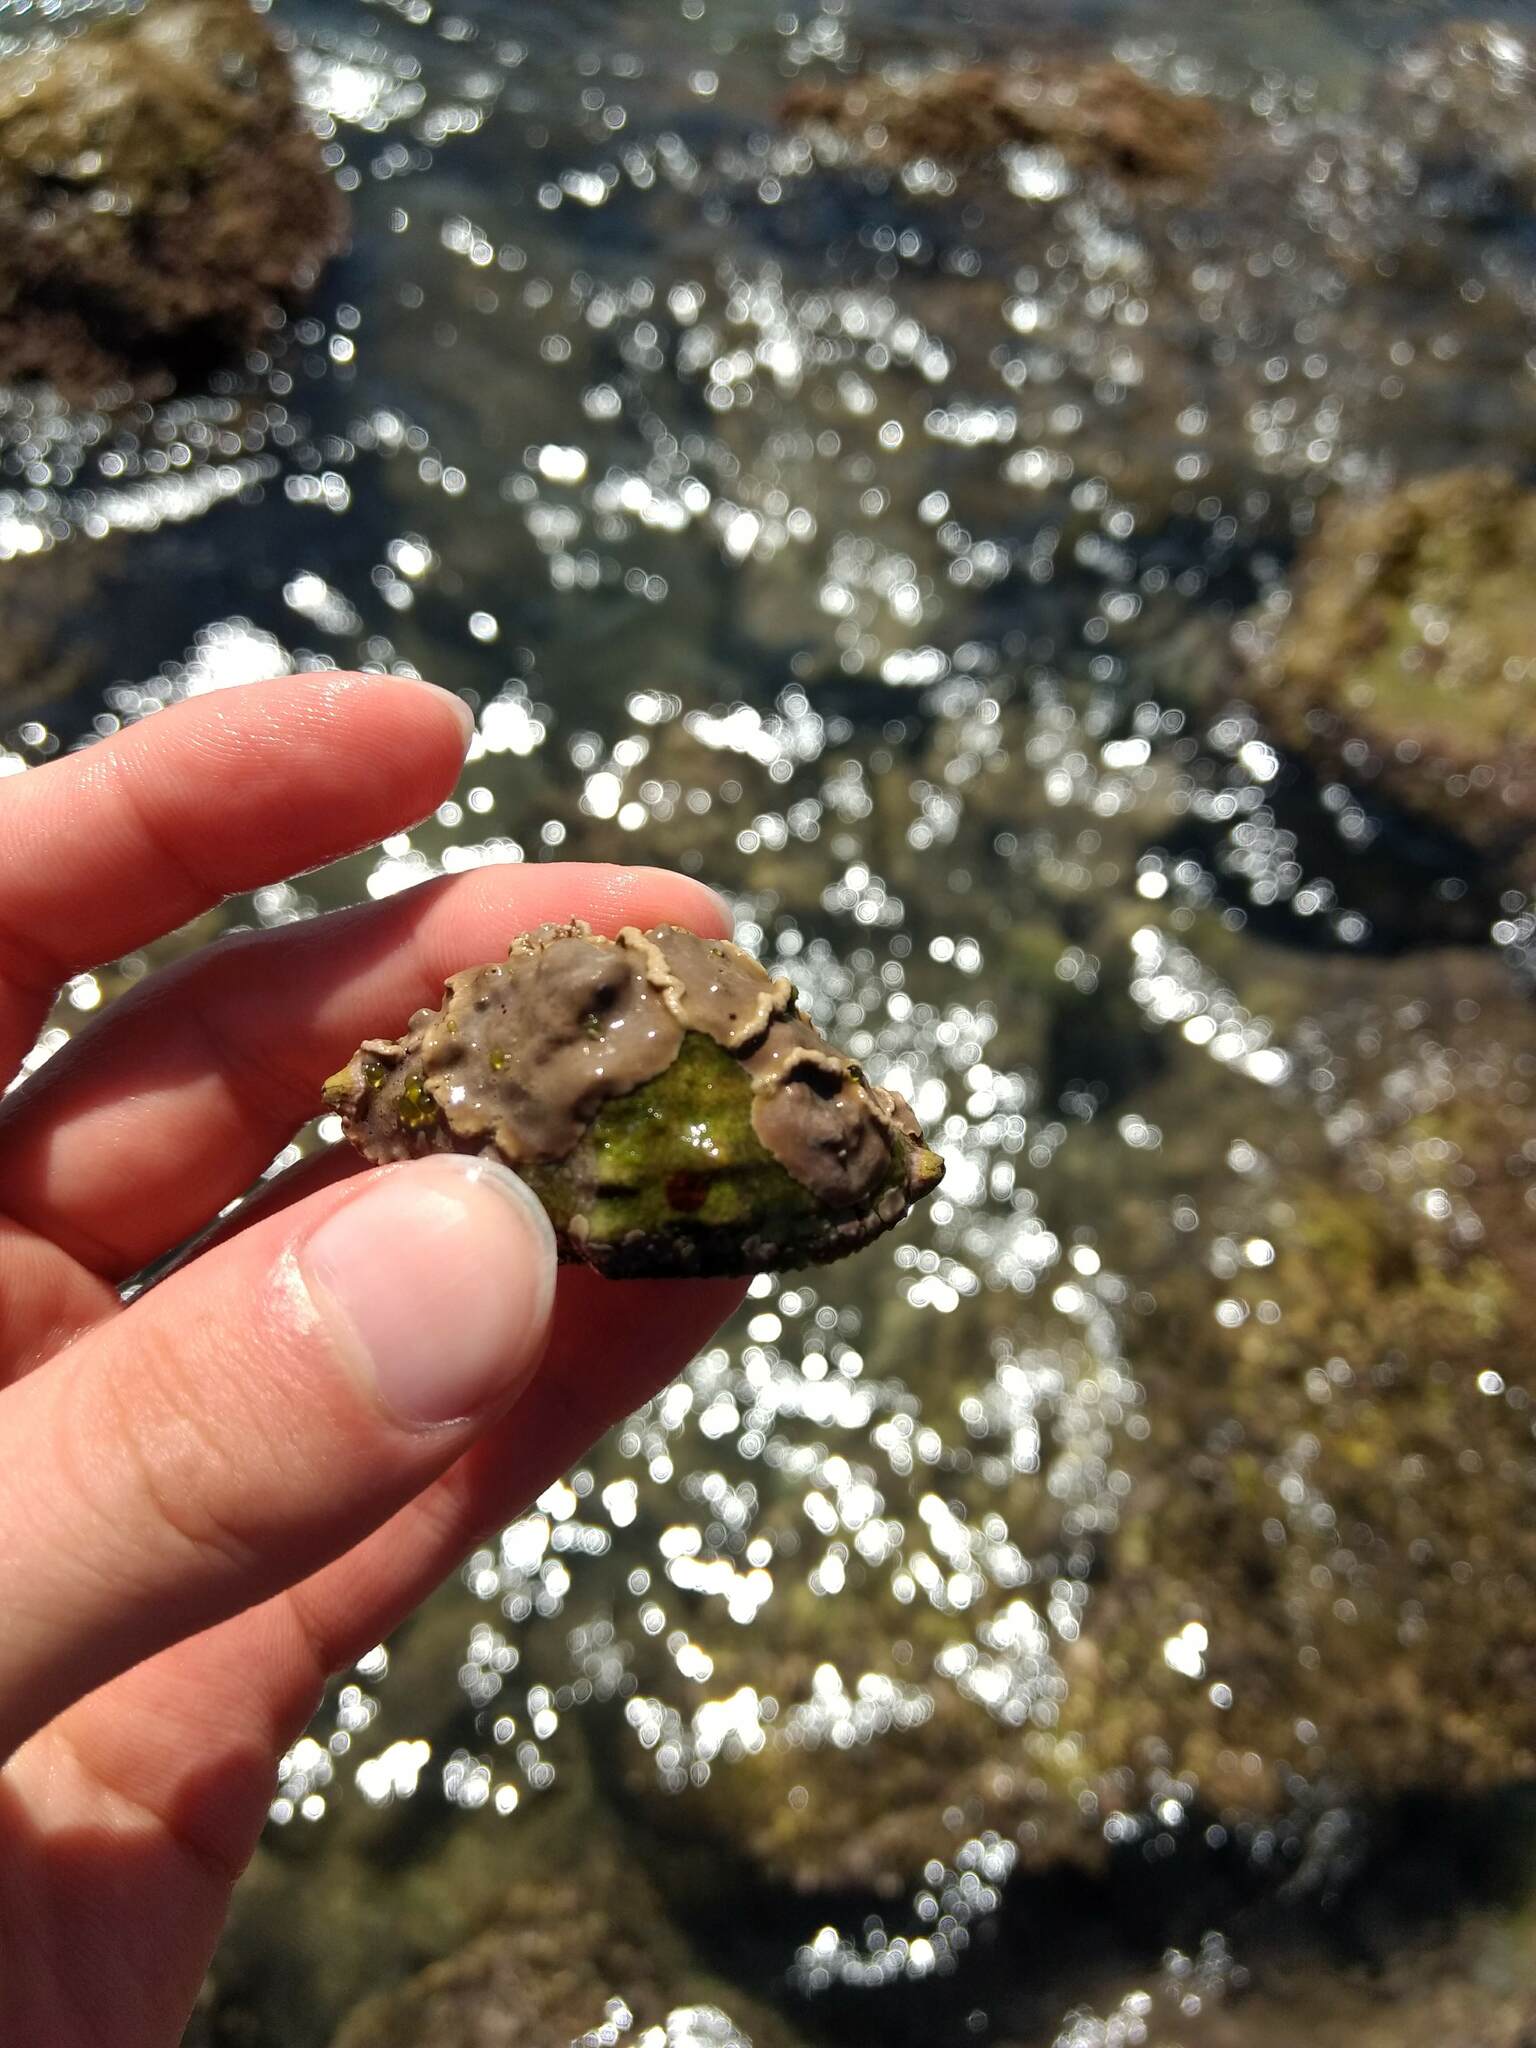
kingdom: Animalia
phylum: Mollusca
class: Gastropoda
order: Neogastropoda
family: Muricidae
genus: Stramonita
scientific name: Stramonita haemastoma
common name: Florida dog winkle
